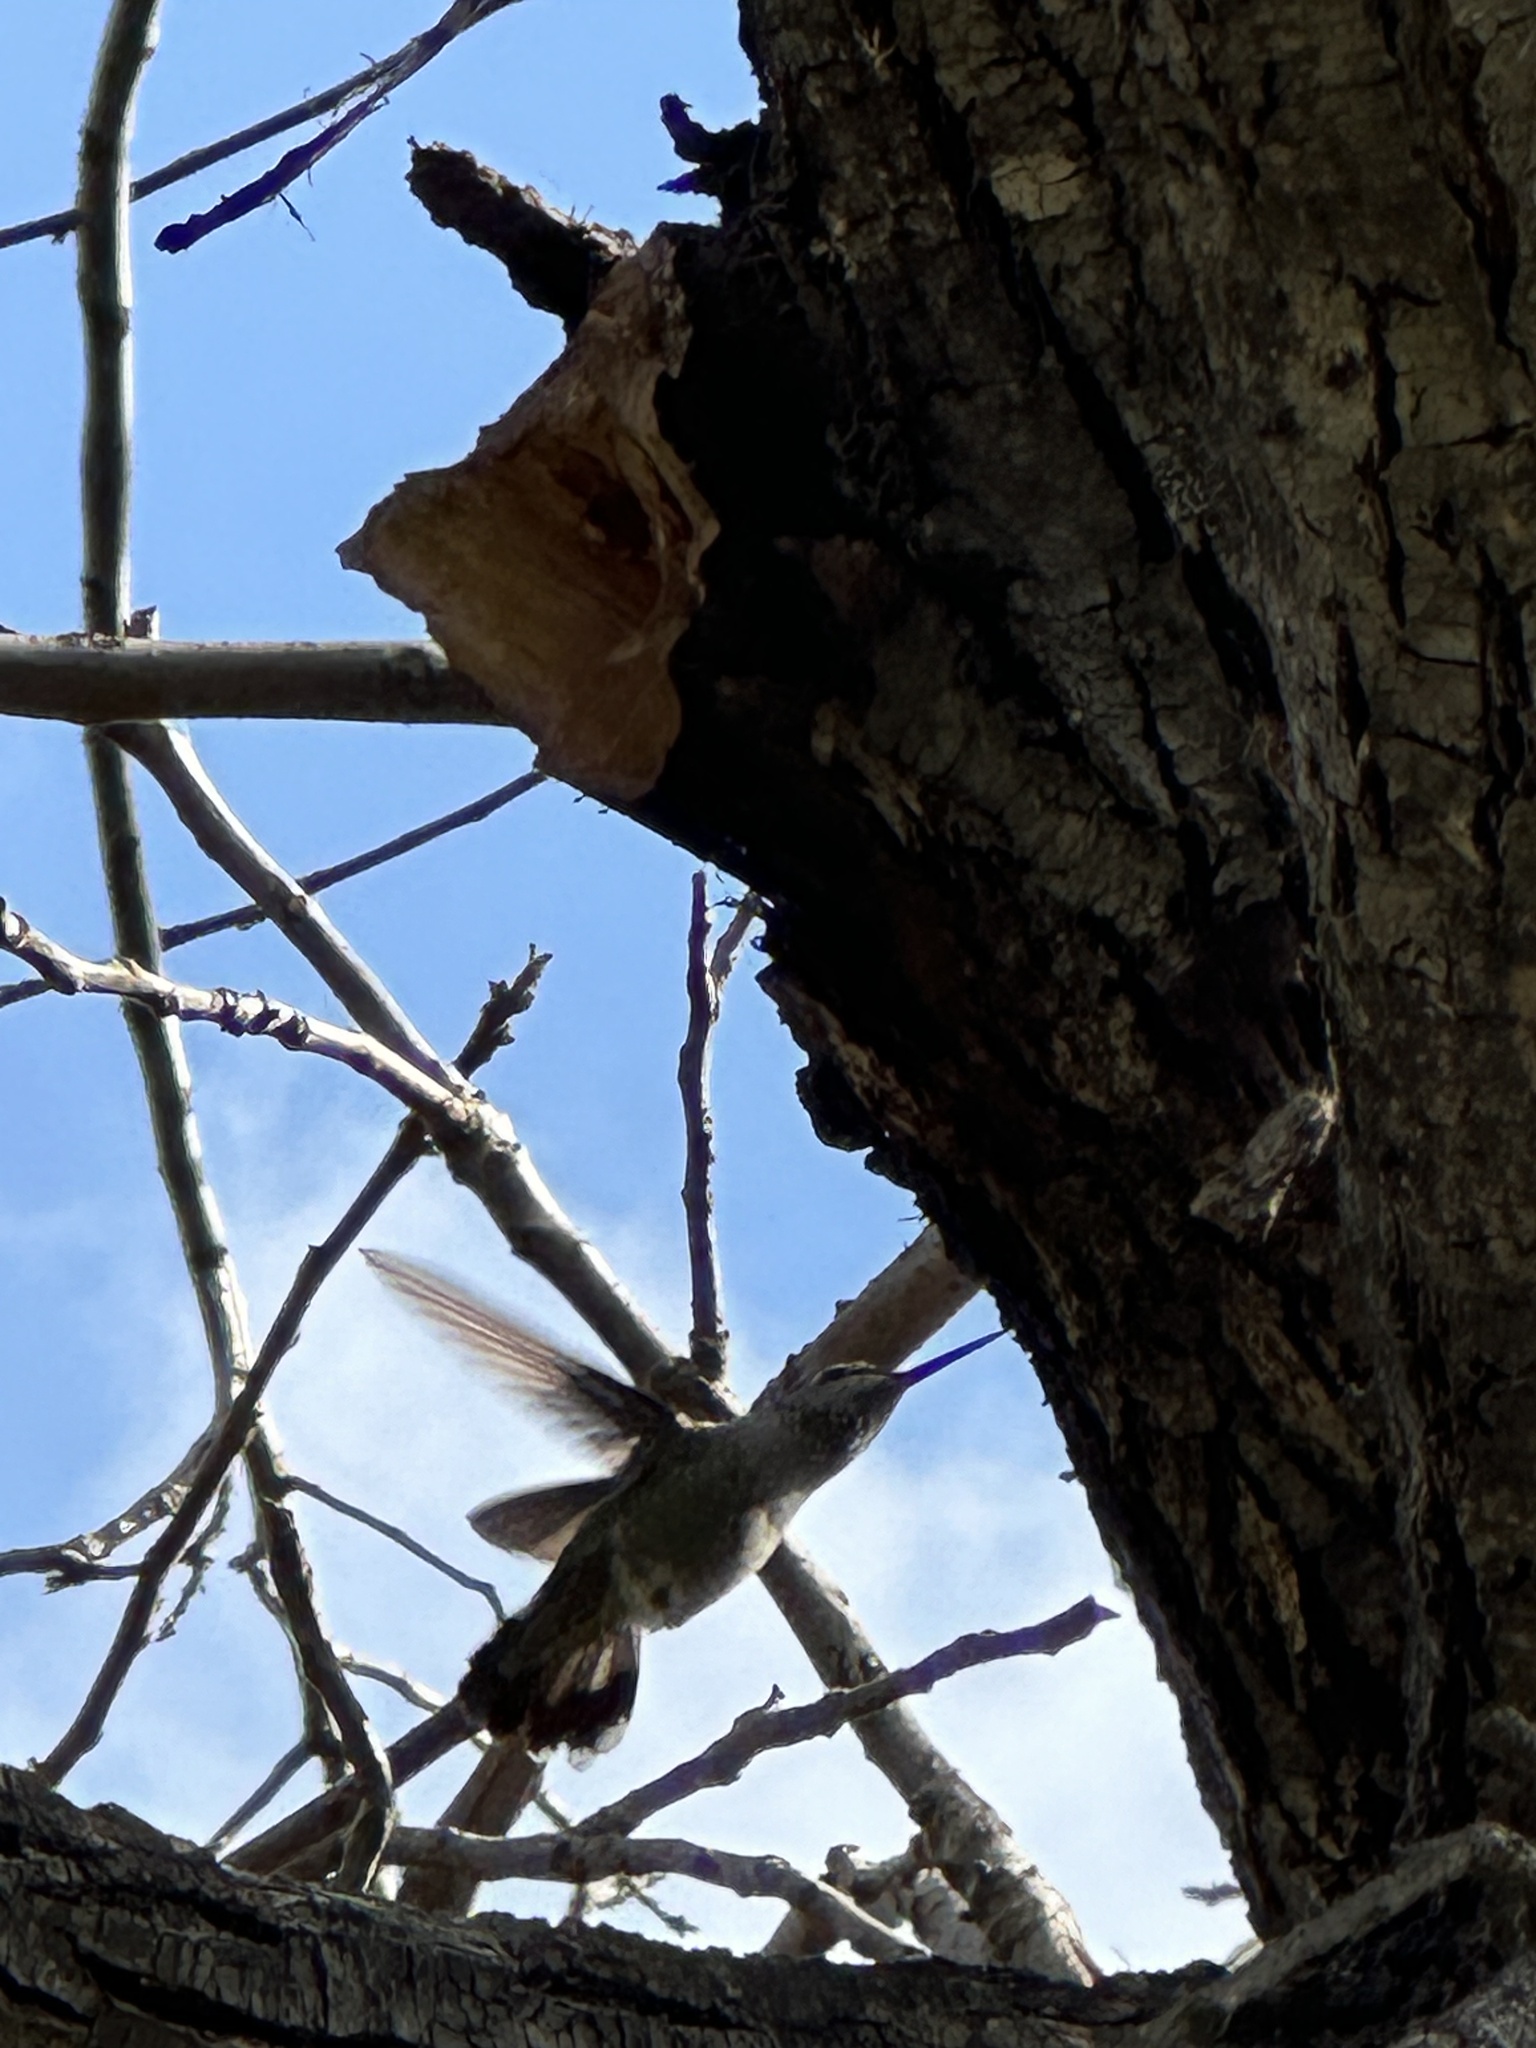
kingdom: Animalia
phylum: Chordata
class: Aves
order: Apodiformes
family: Trochilidae
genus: Calypte
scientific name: Calypte anna
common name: Anna's hummingbird
